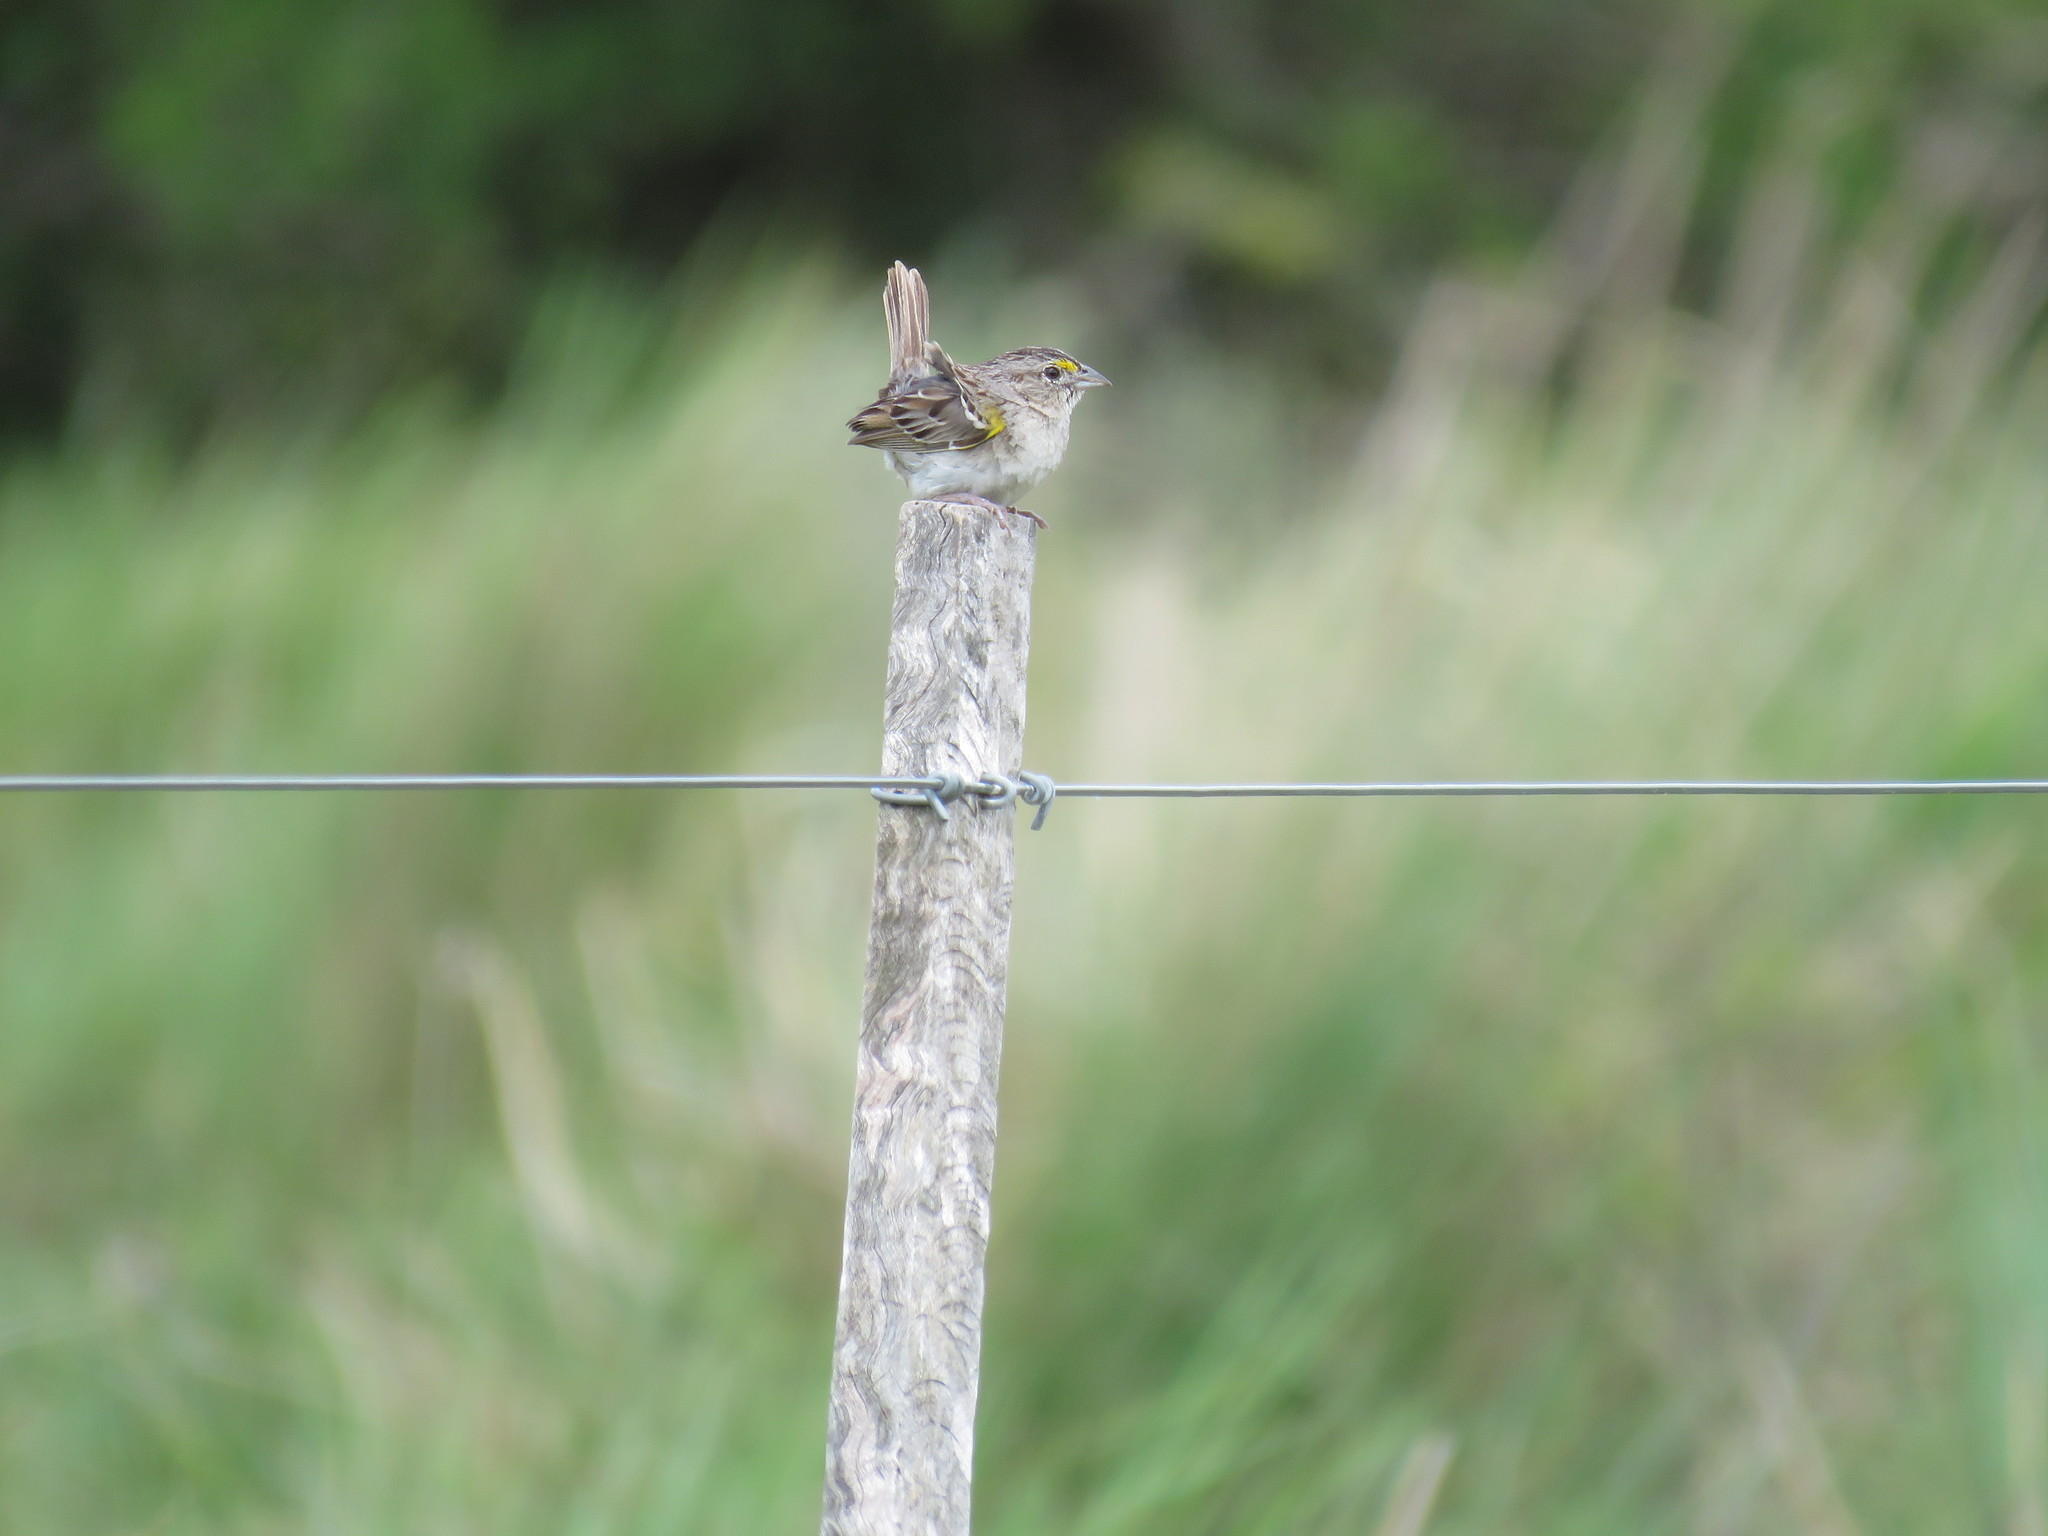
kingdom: Animalia
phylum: Chordata
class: Aves
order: Passeriformes
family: Passerellidae
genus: Ammodramus
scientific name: Ammodramus humeralis
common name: Grassland sparrow
